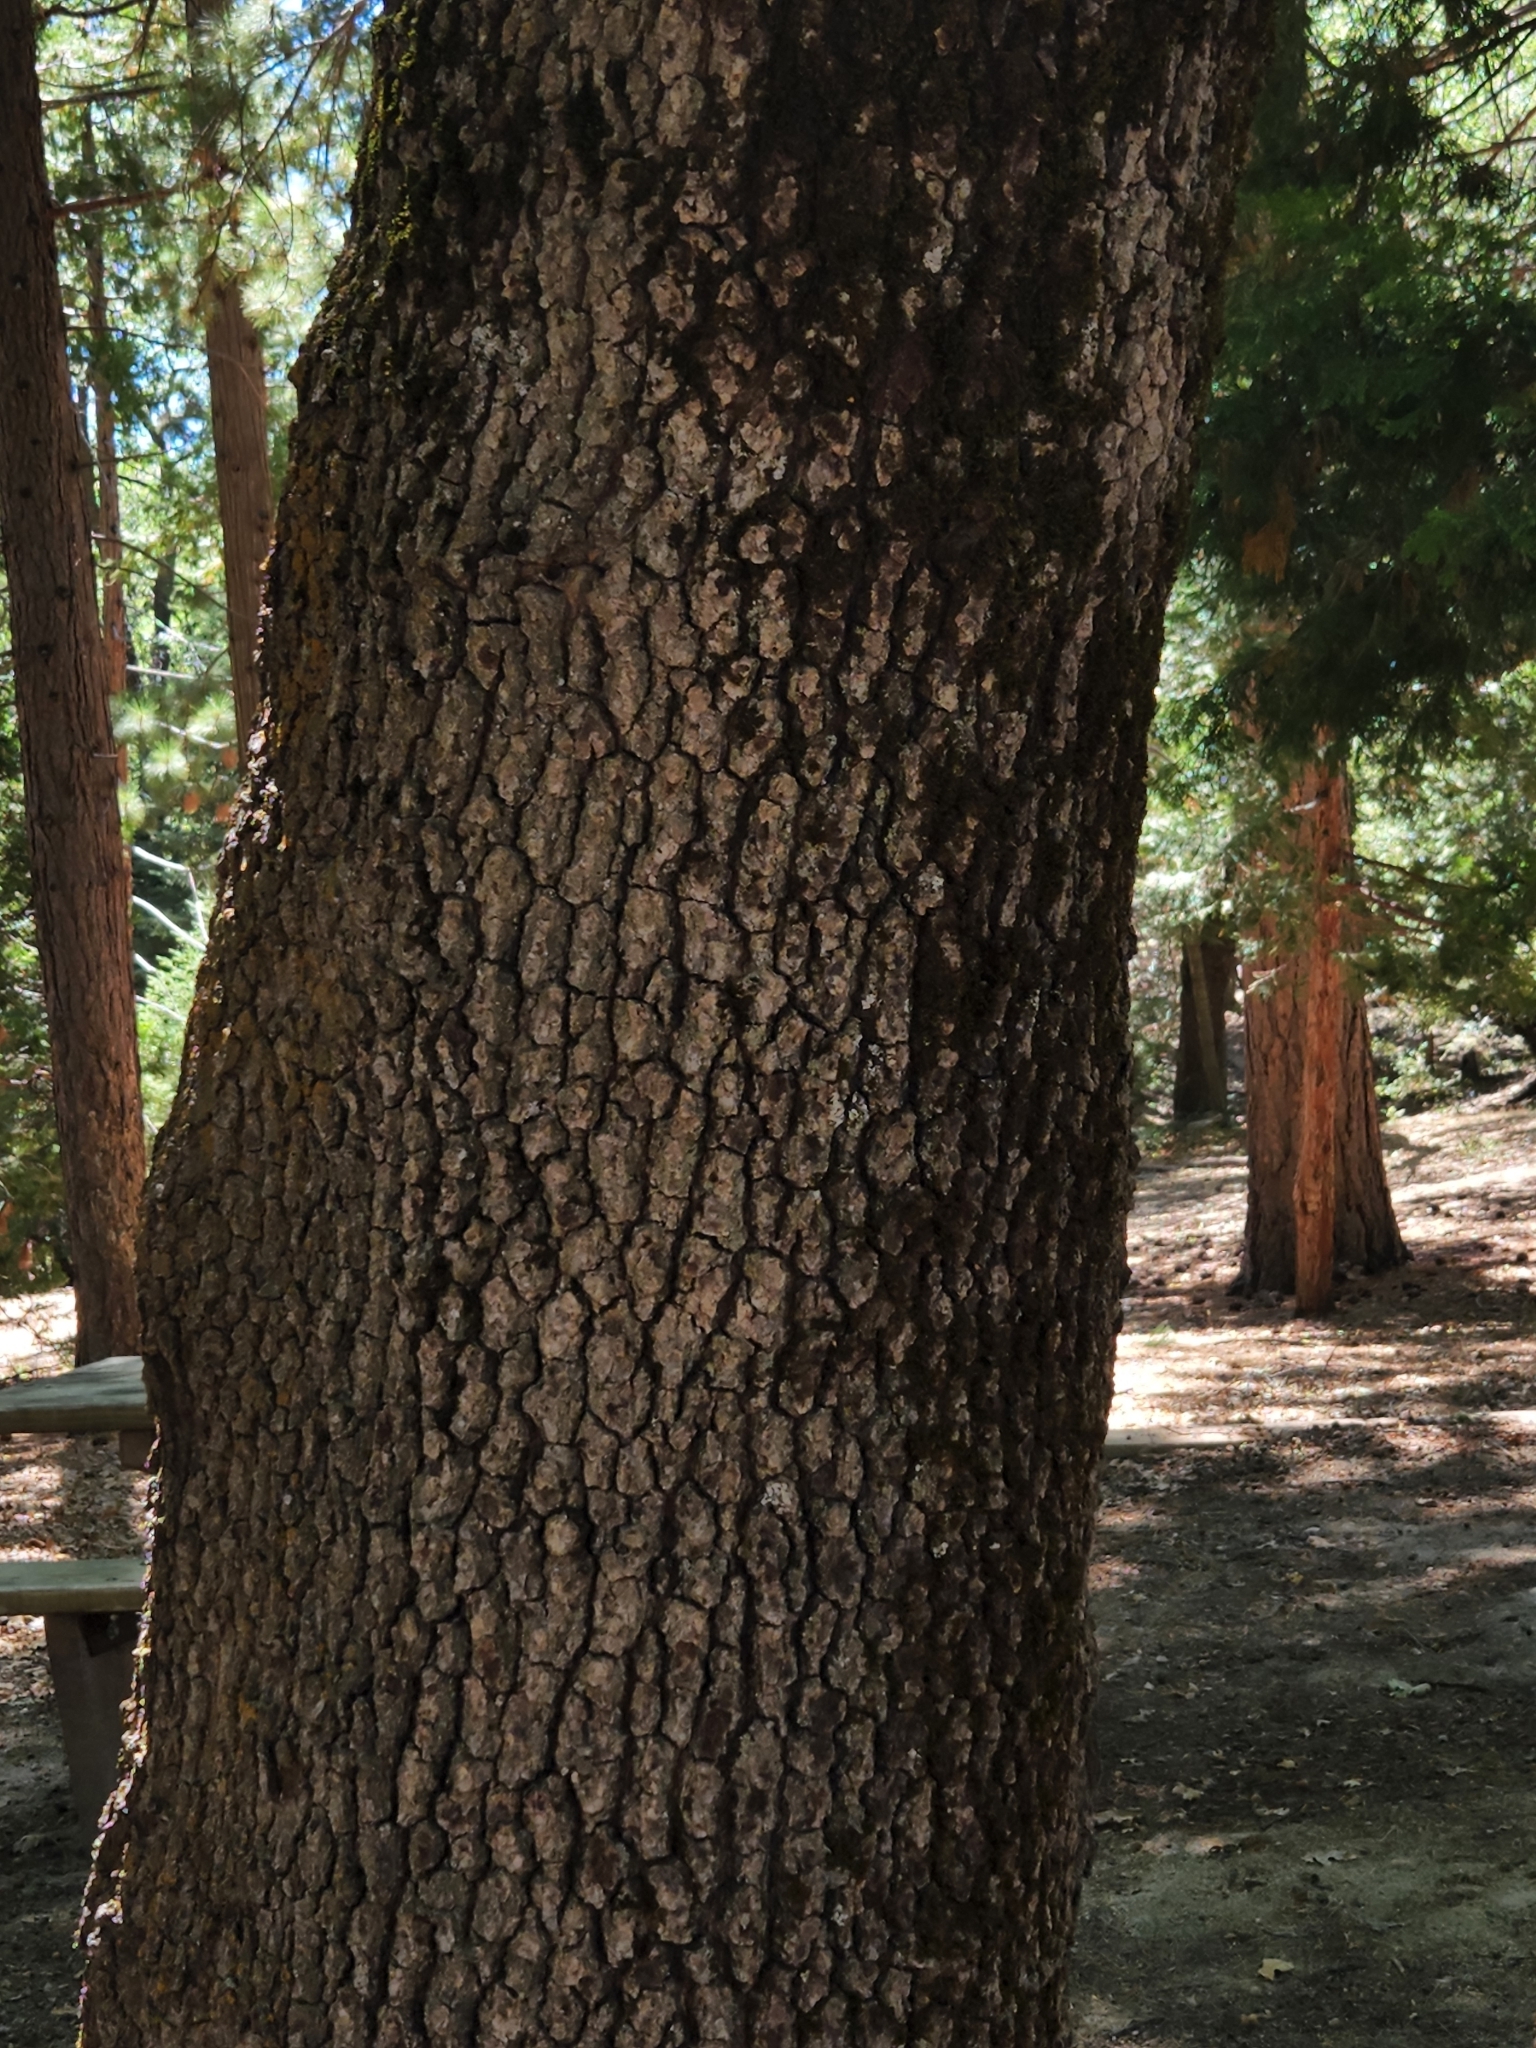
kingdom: Plantae
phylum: Tracheophyta
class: Magnoliopsida
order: Fagales
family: Fagaceae
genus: Quercus
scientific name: Quercus kelloggii
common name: California black oak
